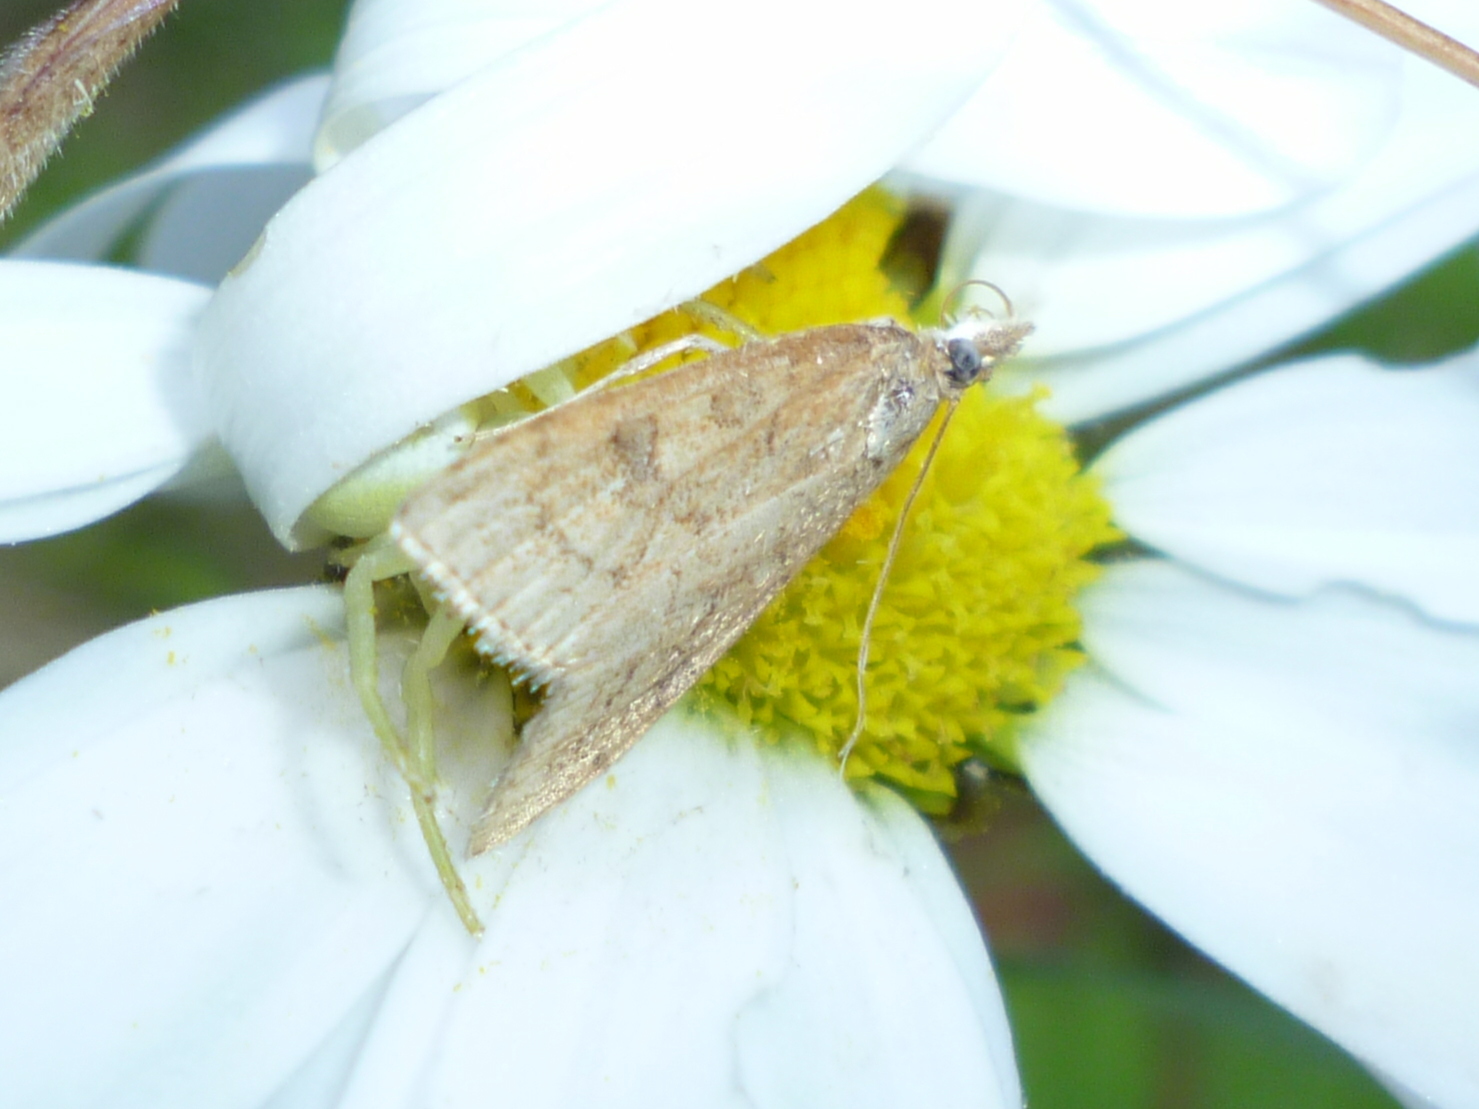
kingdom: Animalia
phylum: Arthropoda
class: Insecta
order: Lepidoptera
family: Crambidae
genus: Udea
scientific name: Udea rubigalis
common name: Celery leaftier moth
